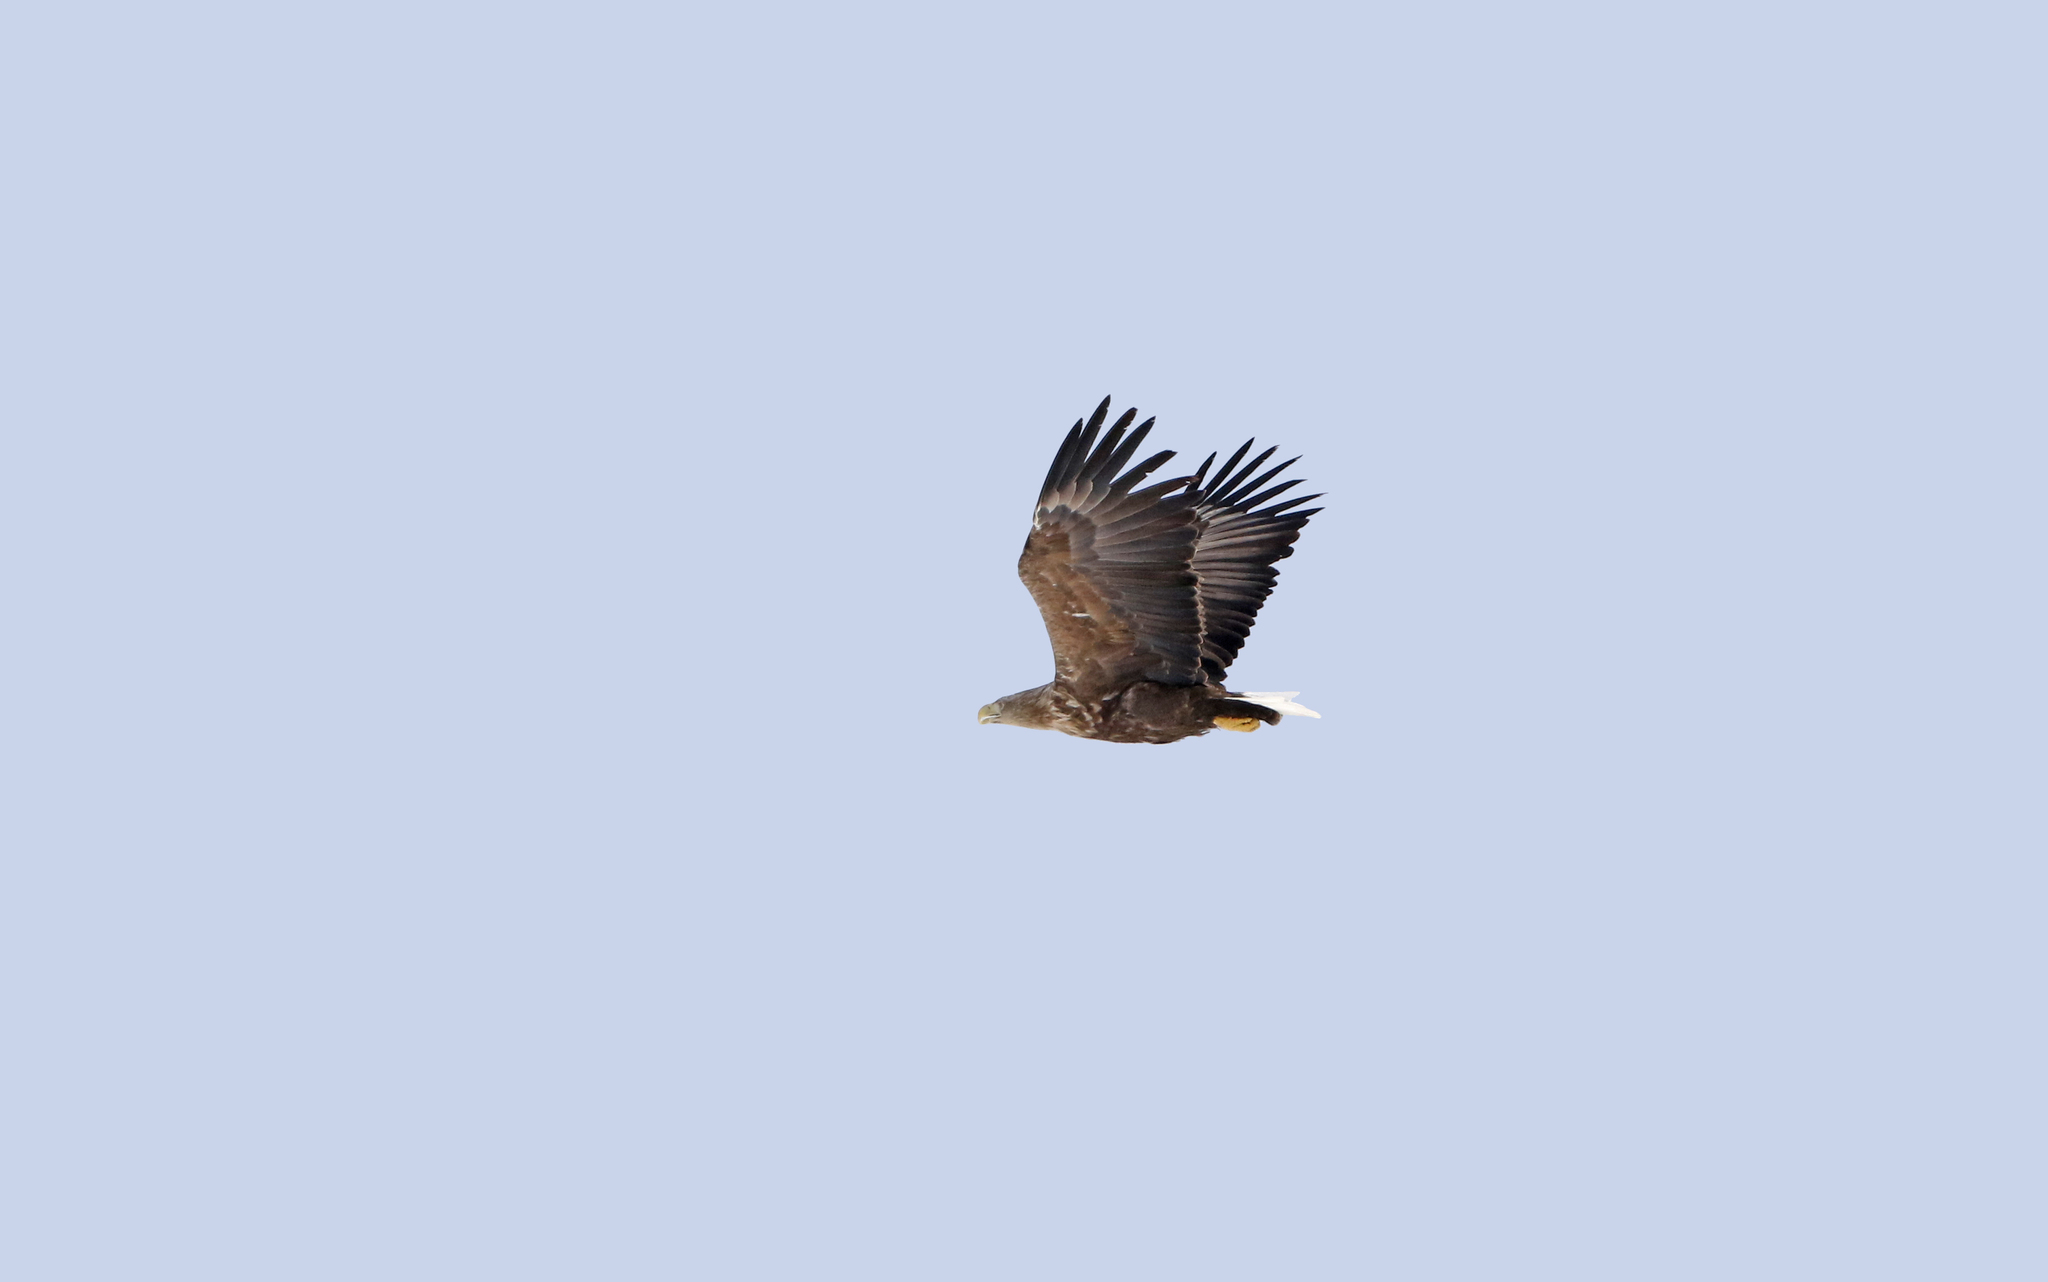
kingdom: Animalia
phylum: Chordata
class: Aves
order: Accipitriformes
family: Accipitridae
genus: Haliaeetus
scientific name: Haliaeetus albicilla
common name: White-tailed eagle
